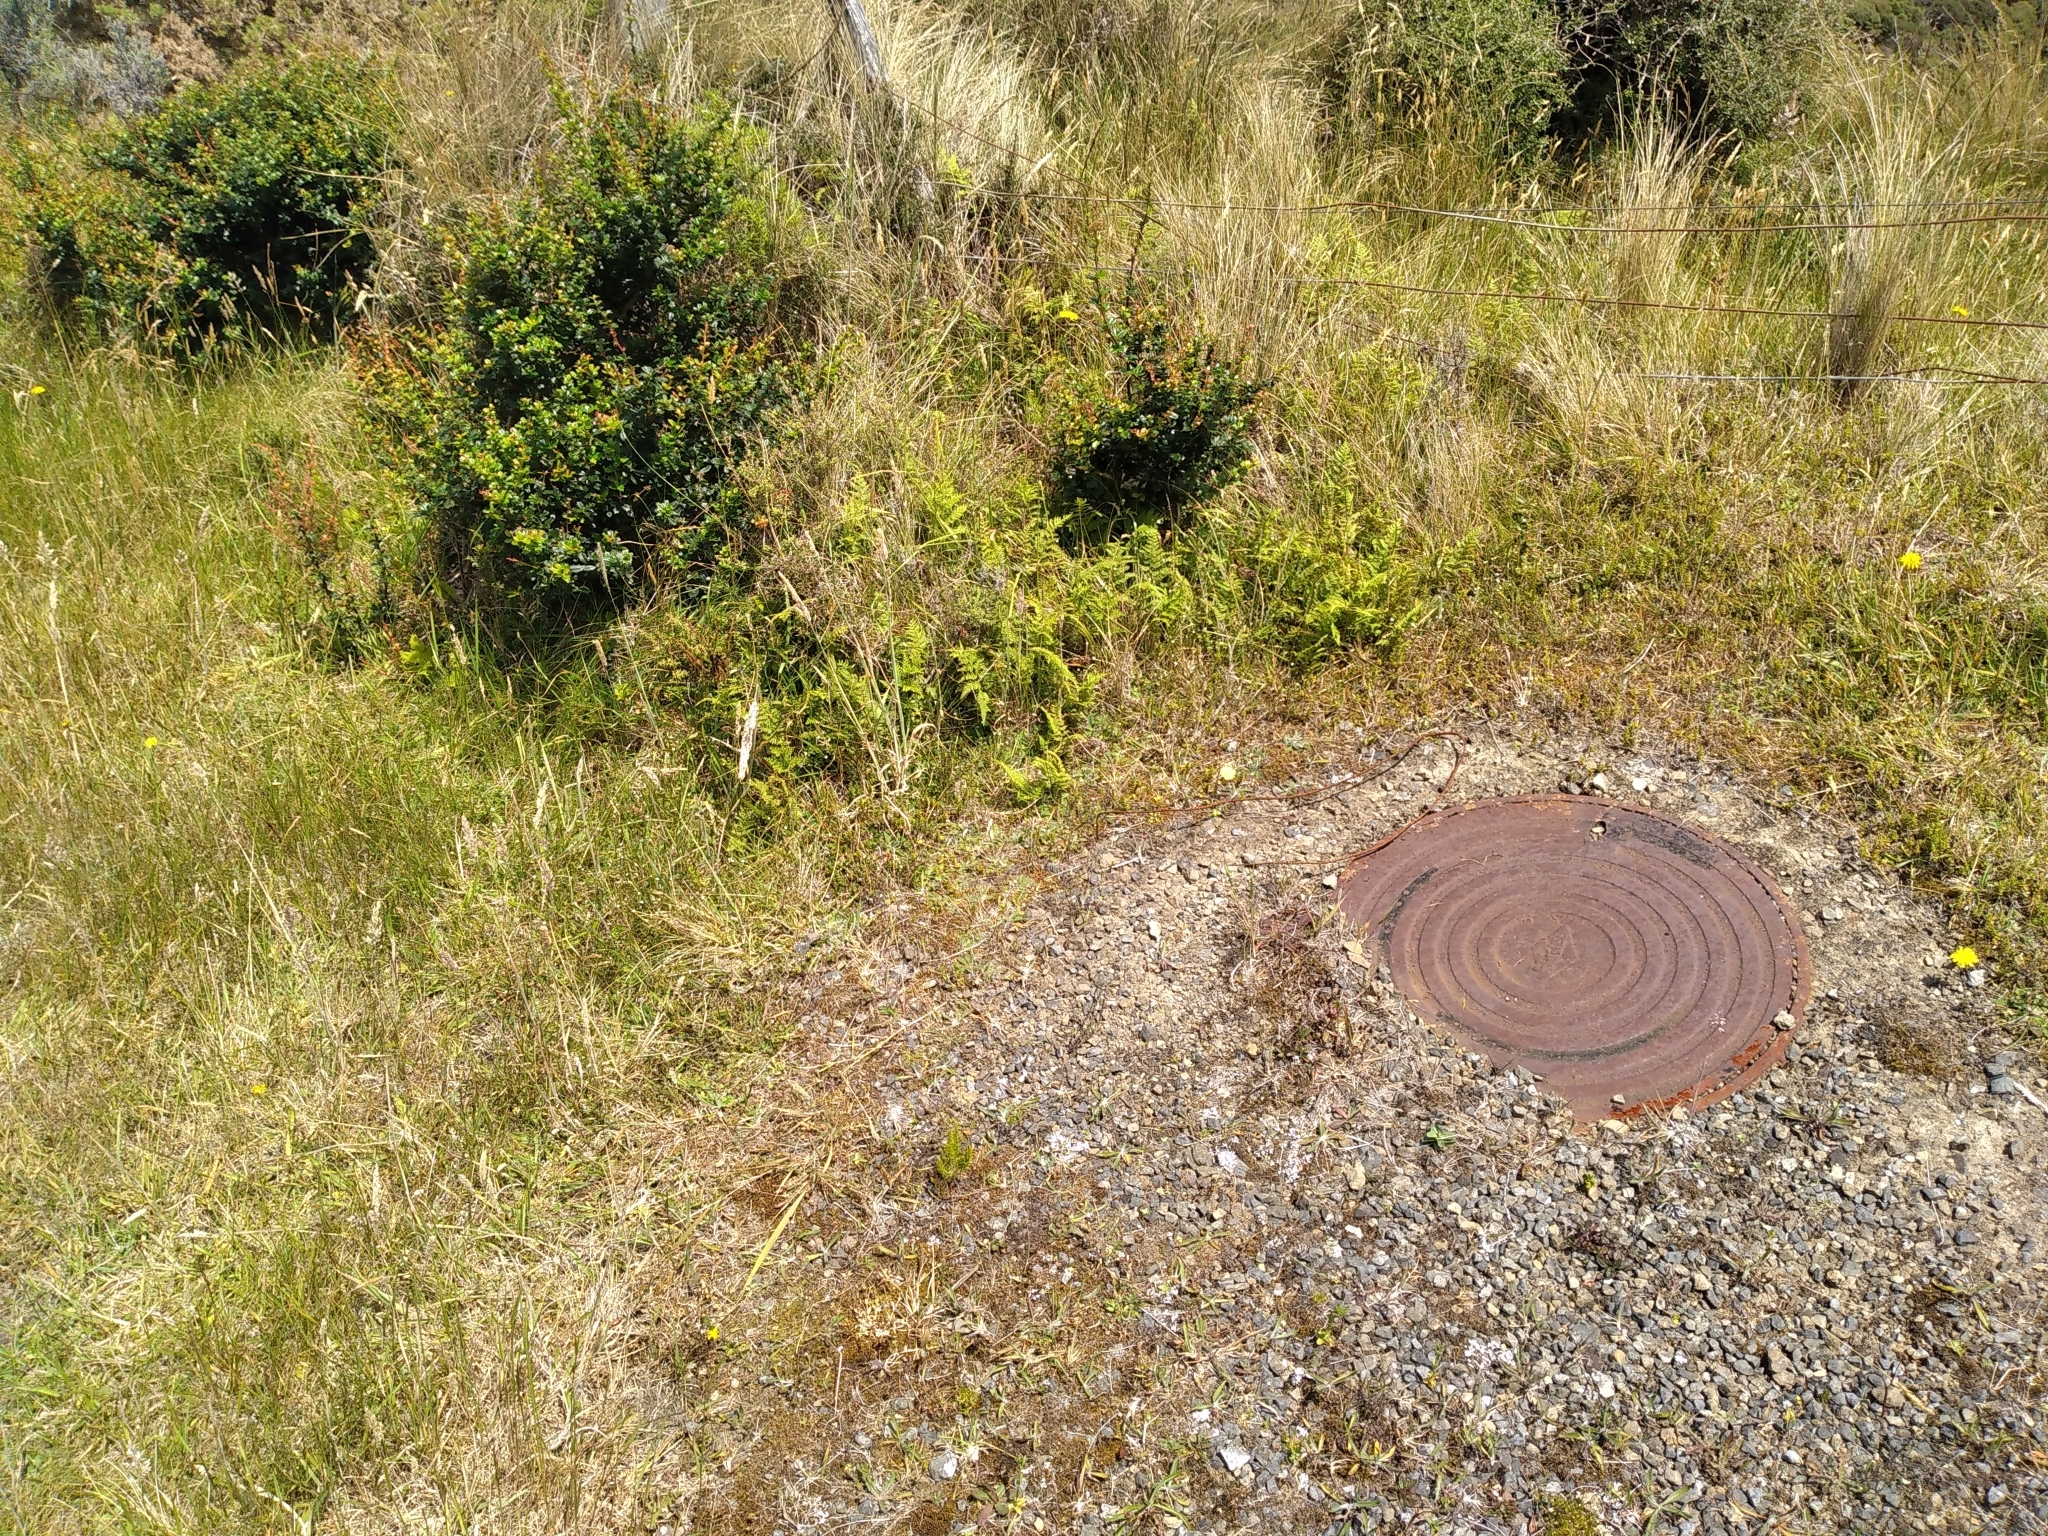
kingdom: Plantae
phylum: Tracheophyta
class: Magnoliopsida
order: Malpighiales
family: Linaceae
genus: Linum
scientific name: Linum catharticum
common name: Fairy flax
